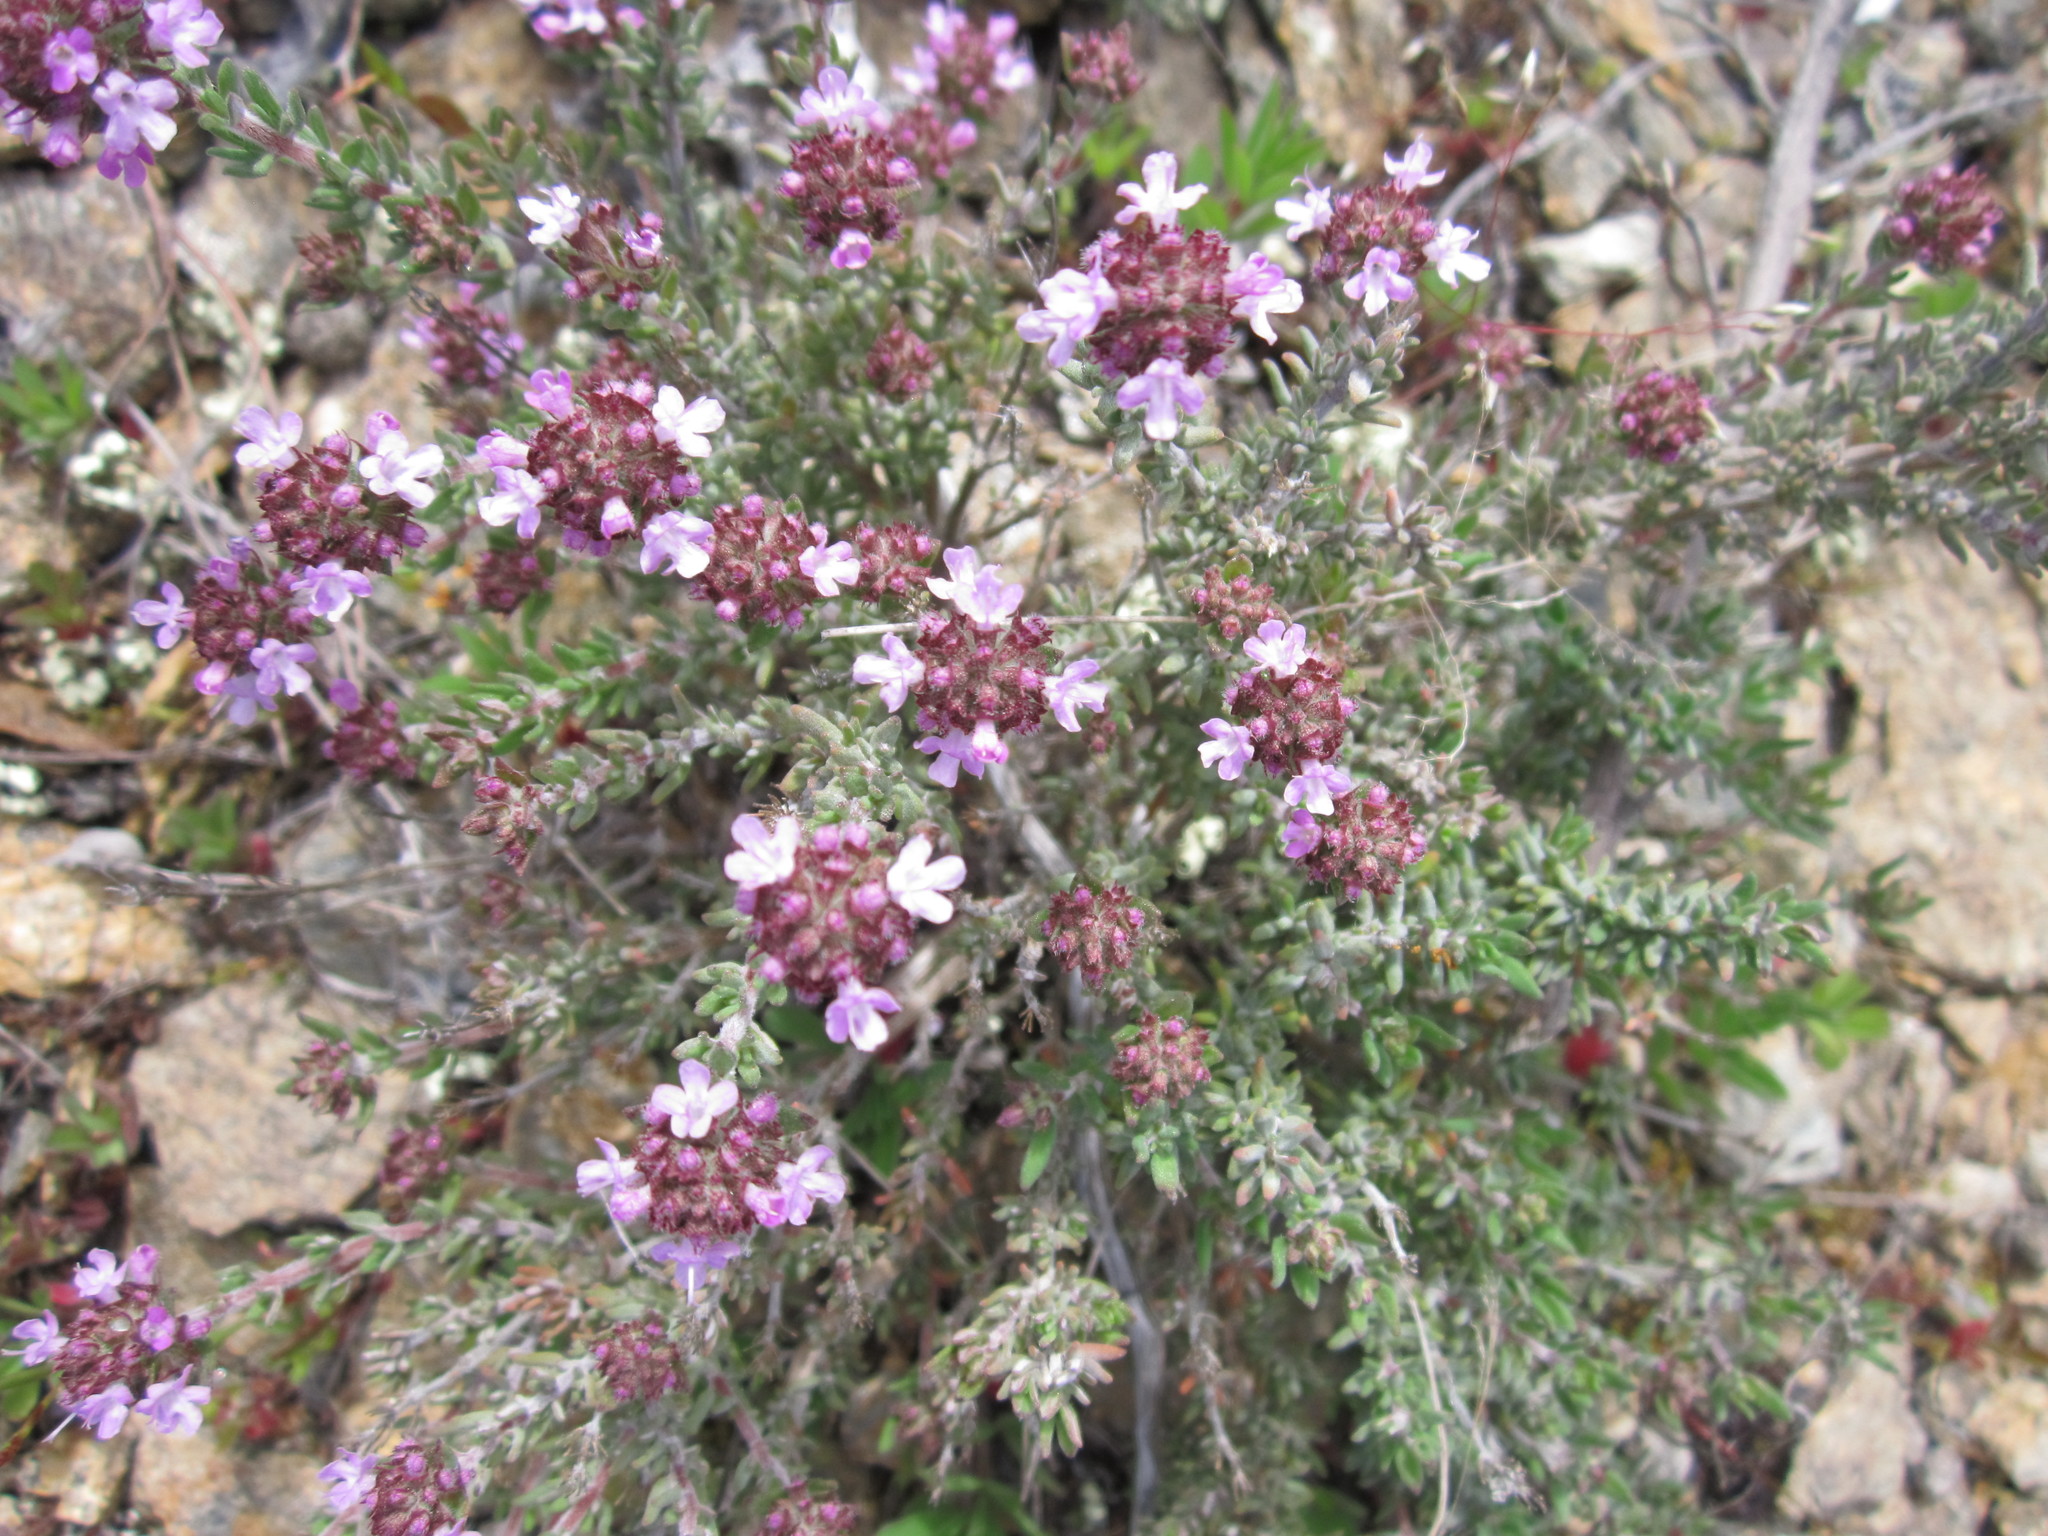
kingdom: Plantae
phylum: Tracheophyta
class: Magnoliopsida
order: Lamiales
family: Lamiaceae
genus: Thymus
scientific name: Thymus vulgaris
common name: Garden thyme
